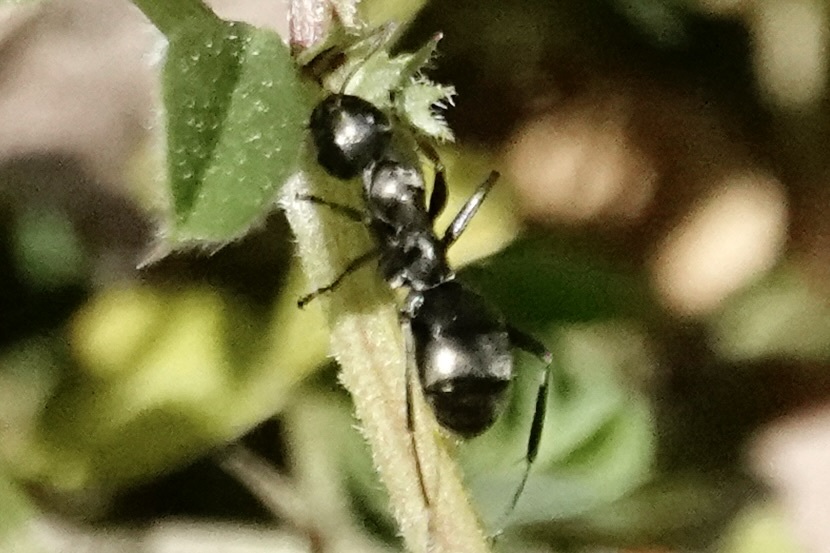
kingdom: Animalia
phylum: Arthropoda
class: Insecta
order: Hymenoptera
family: Formicidae
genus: Formica
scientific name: Formica subsericea
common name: Silky field ant
